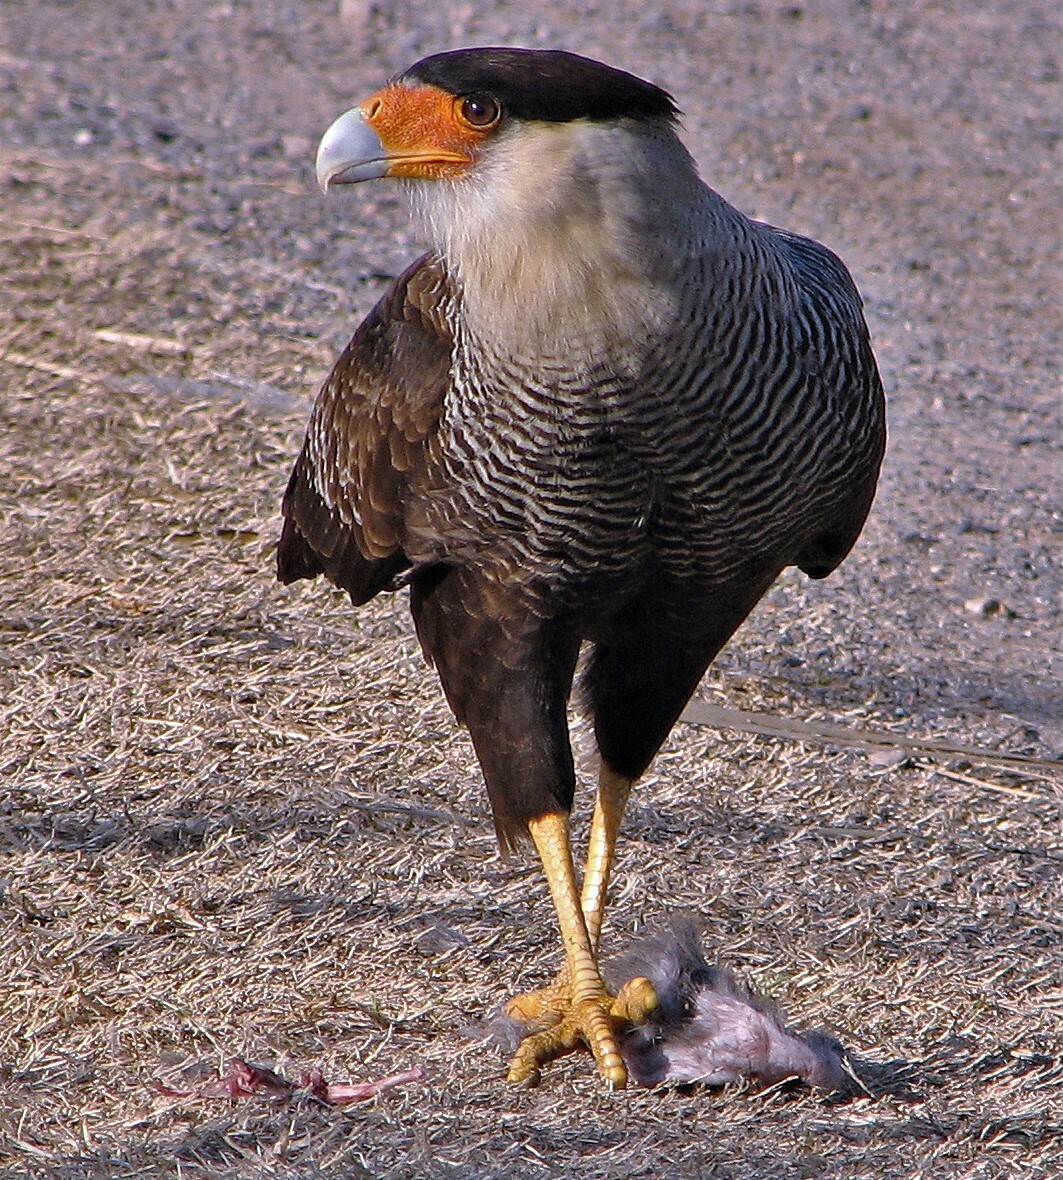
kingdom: Animalia
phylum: Chordata
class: Aves
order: Falconiformes
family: Falconidae
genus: Caracara
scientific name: Caracara plancus
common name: Southern caracara
